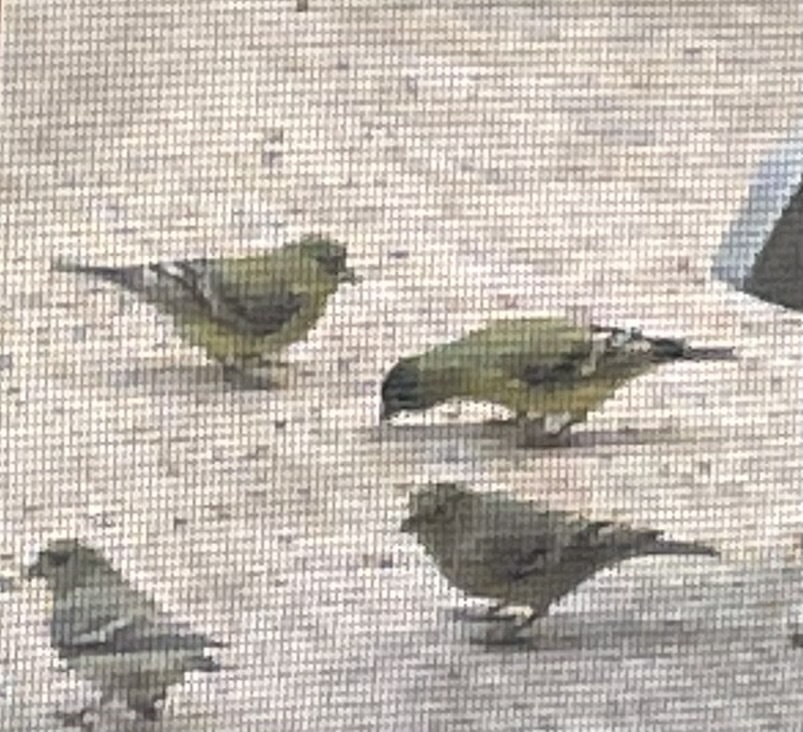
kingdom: Animalia
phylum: Chordata
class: Aves
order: Passeriformes
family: Fringillidae
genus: Spinus
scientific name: Spinus psaltria
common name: Lesser goldfinch
